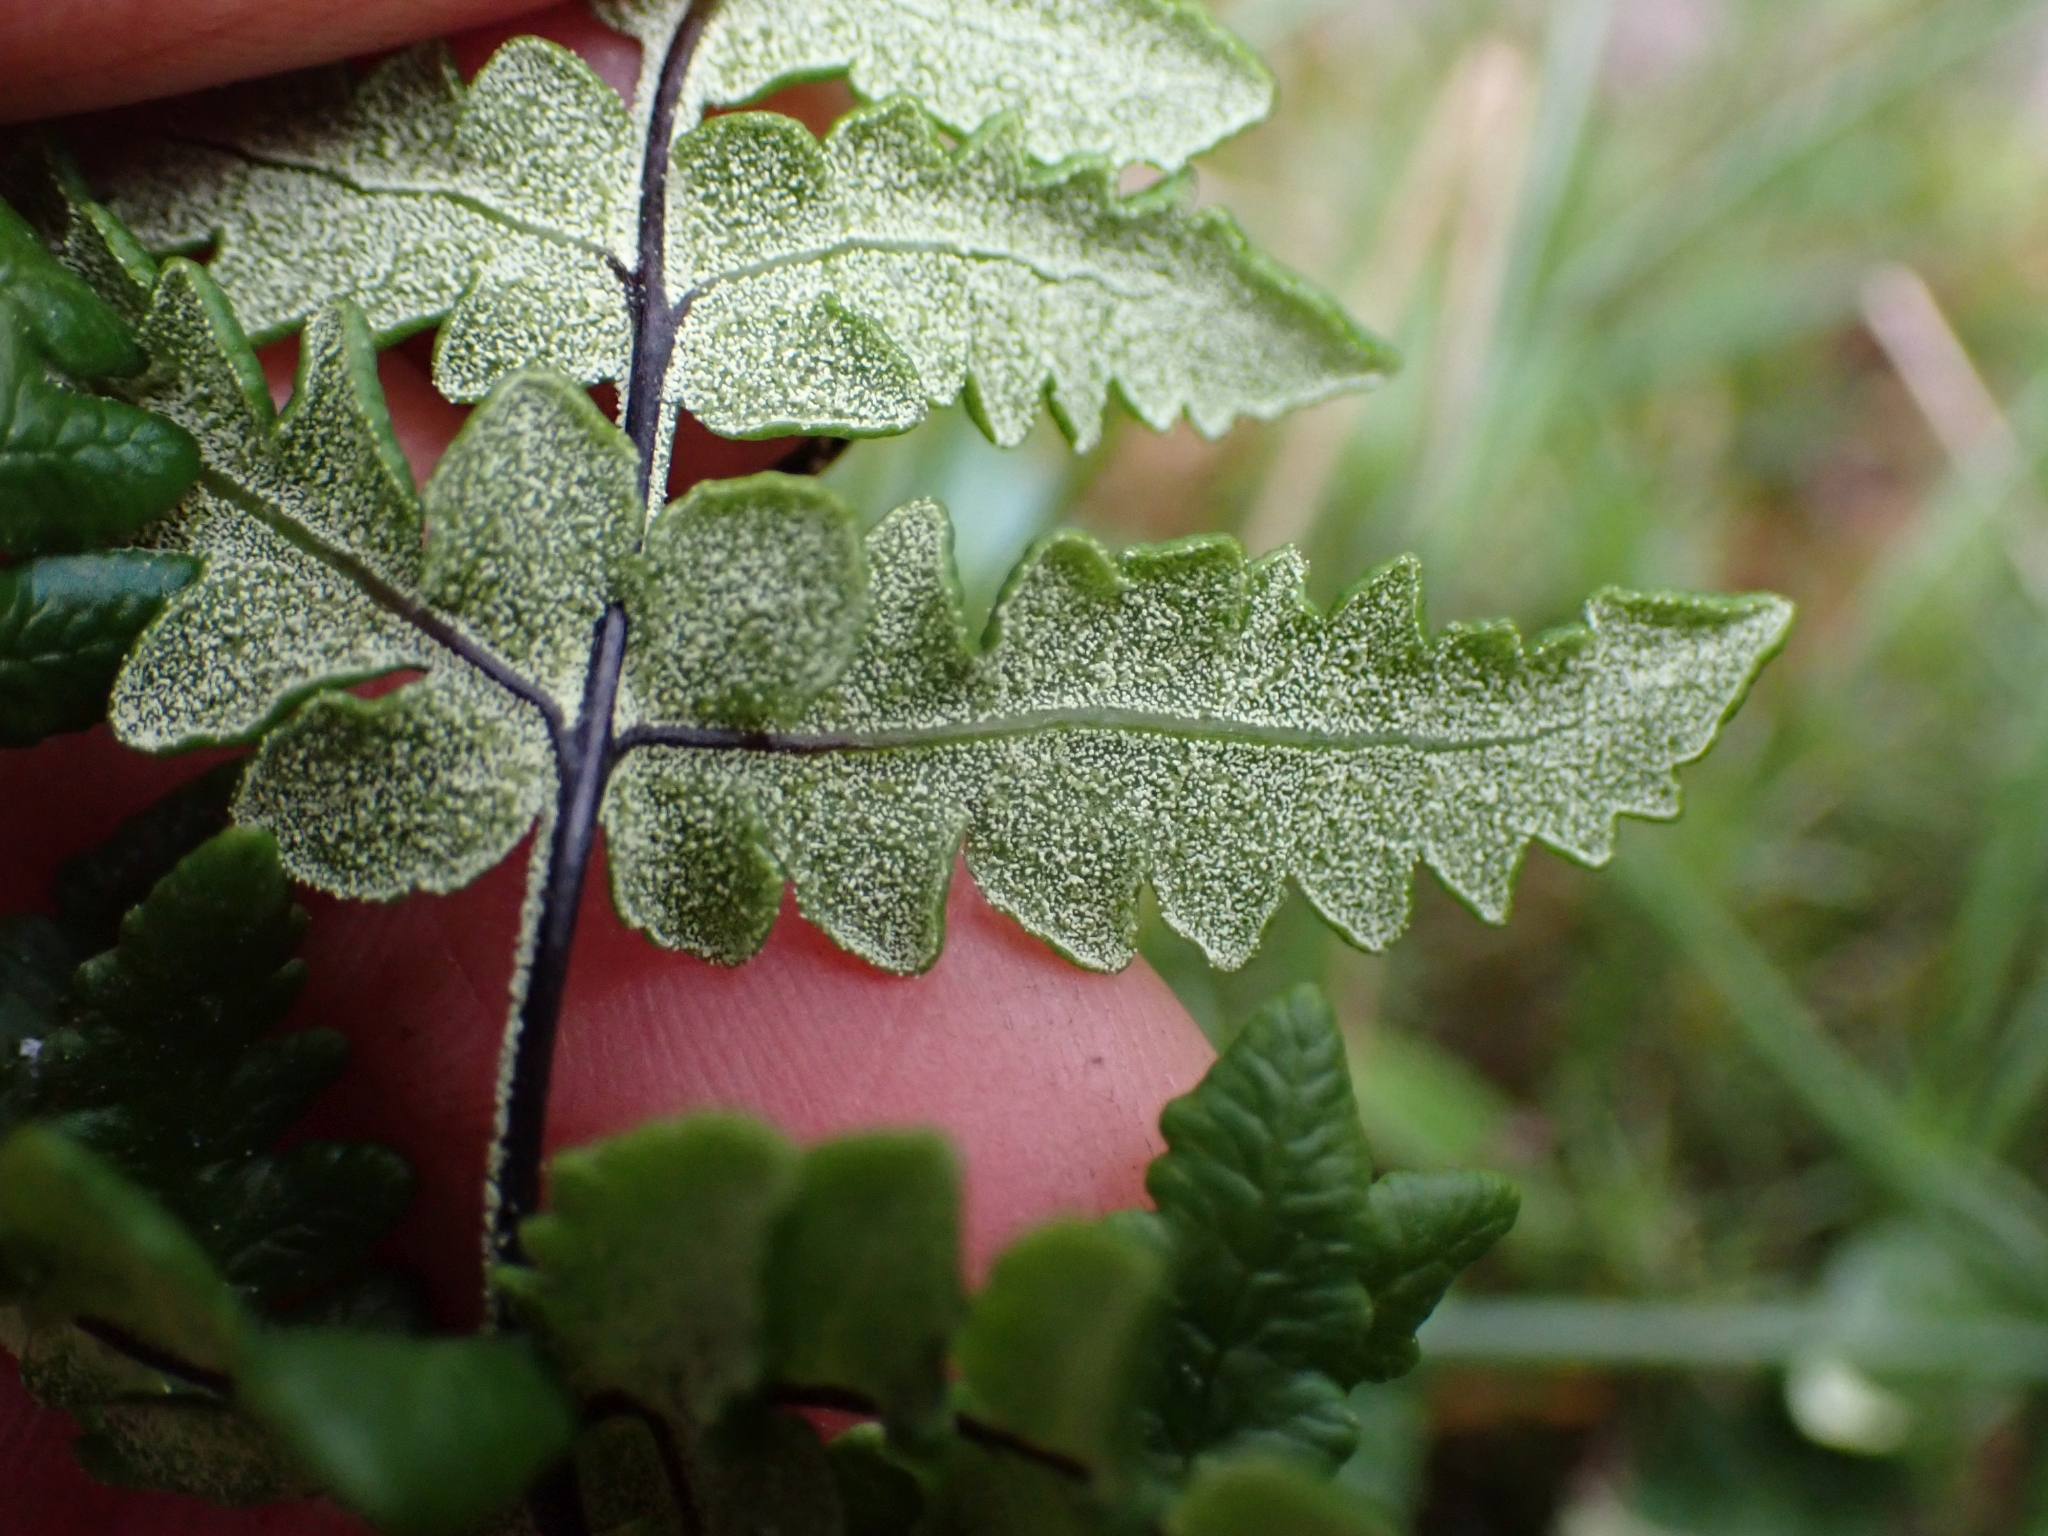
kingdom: Plantae
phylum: Tracheophyta
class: Polypodiopsida
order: Polypodiales
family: Pteridaceae
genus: Pentagramma
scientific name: Pentagramma triangularis
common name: Gold fern
